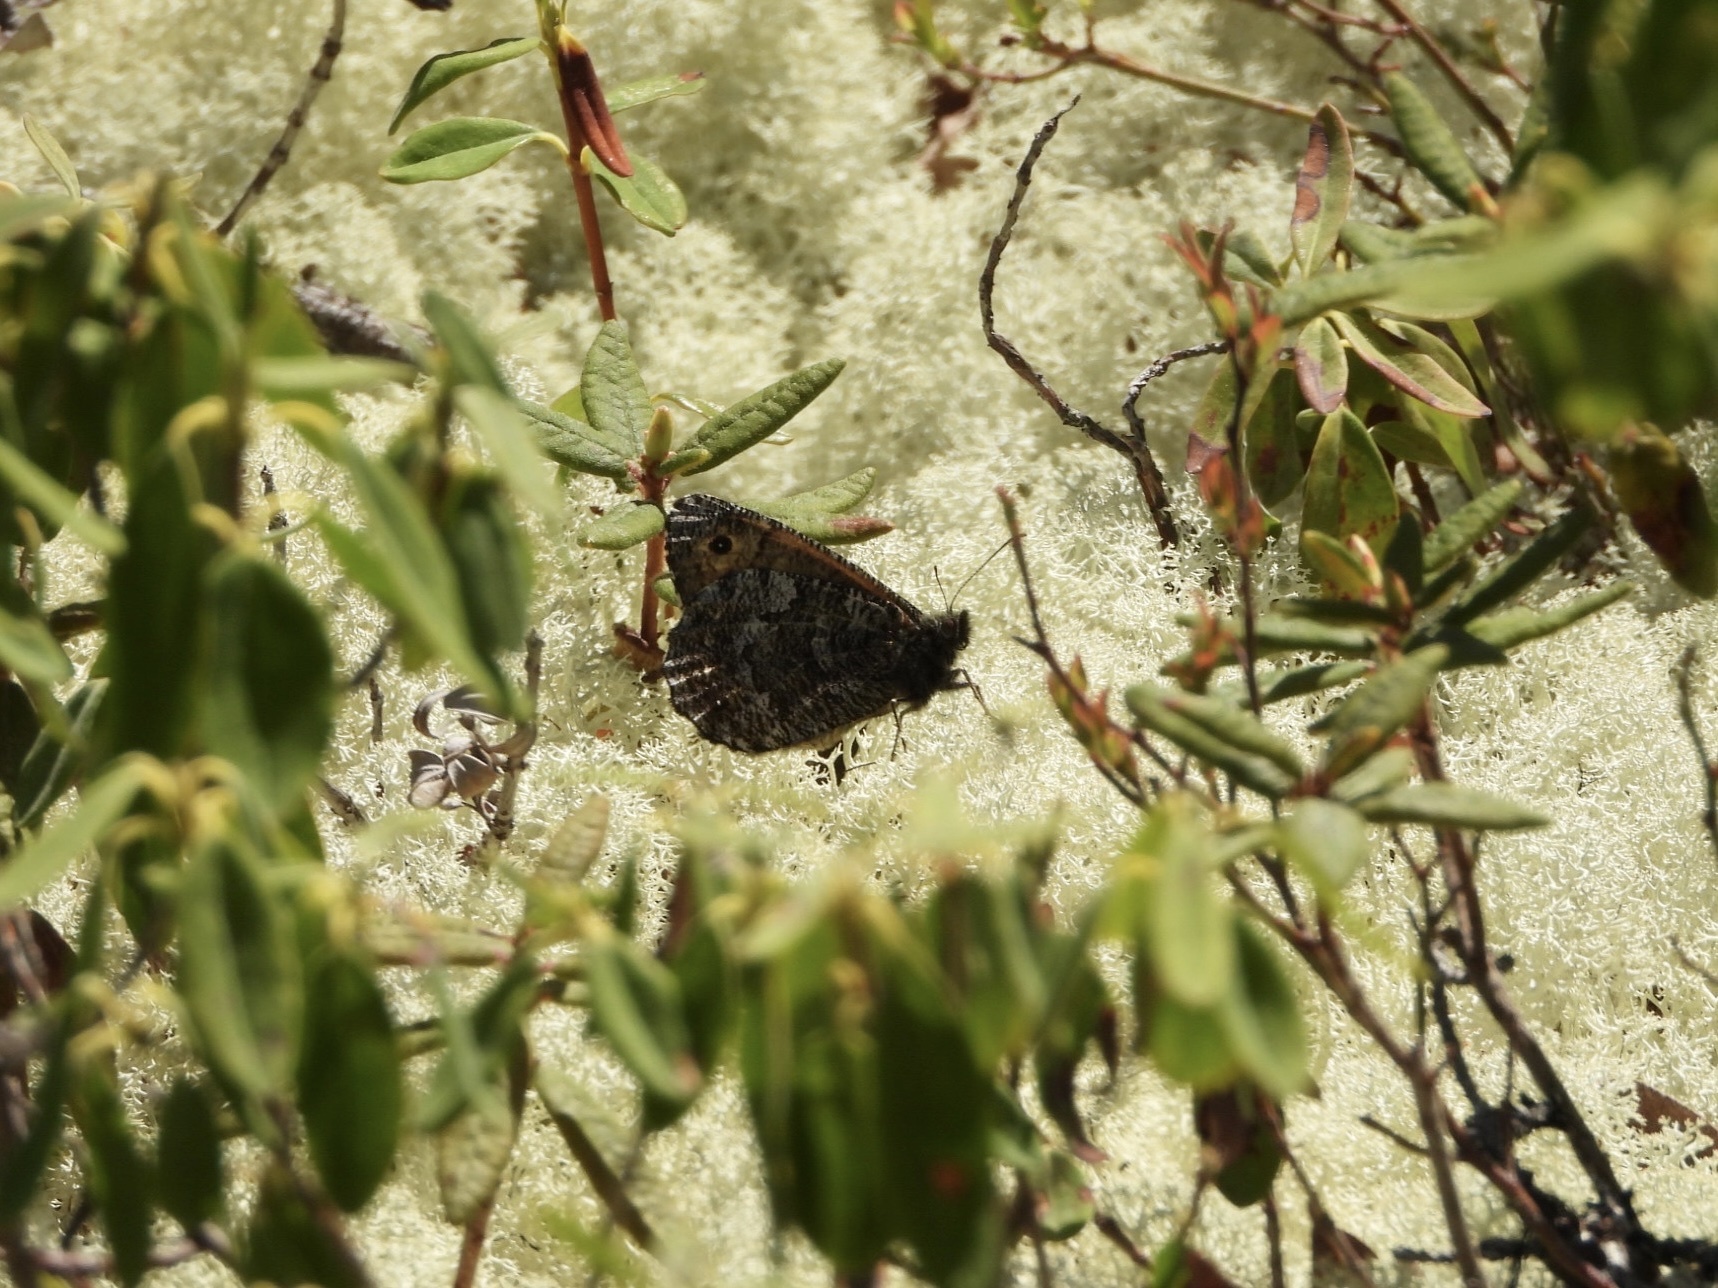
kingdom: Animalia
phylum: Arthropoda
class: Insecta
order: Lepidoptera
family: Nymphalidae
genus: Oeneis
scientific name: Oeneis jutta
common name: Baltic grayling
